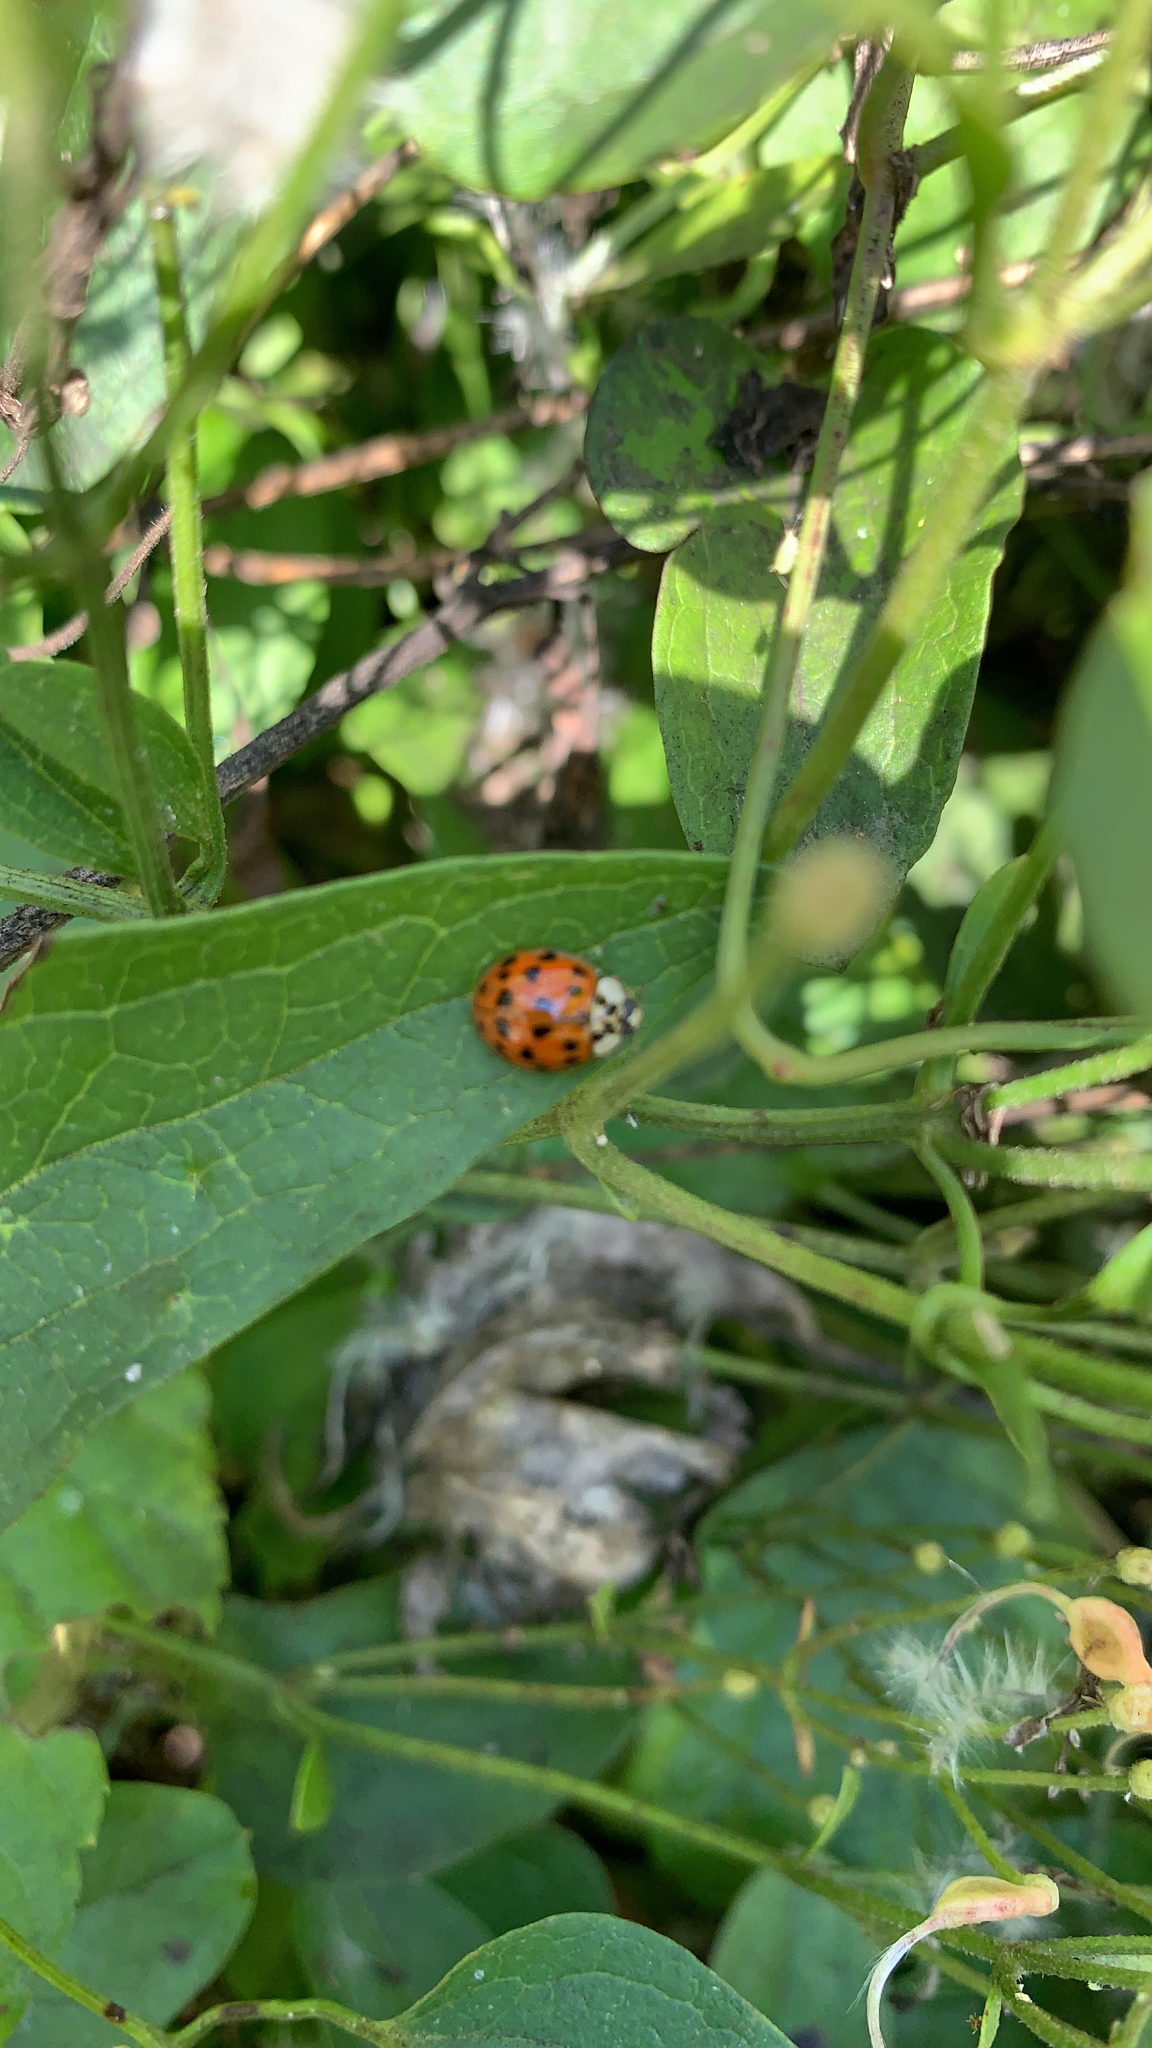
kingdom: Animalia
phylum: Arthropoda
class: Insecta
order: Coleoptera
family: Coccinellidae
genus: Harmonia
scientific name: Harmonia axyridis
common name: Harlequin ladybird
